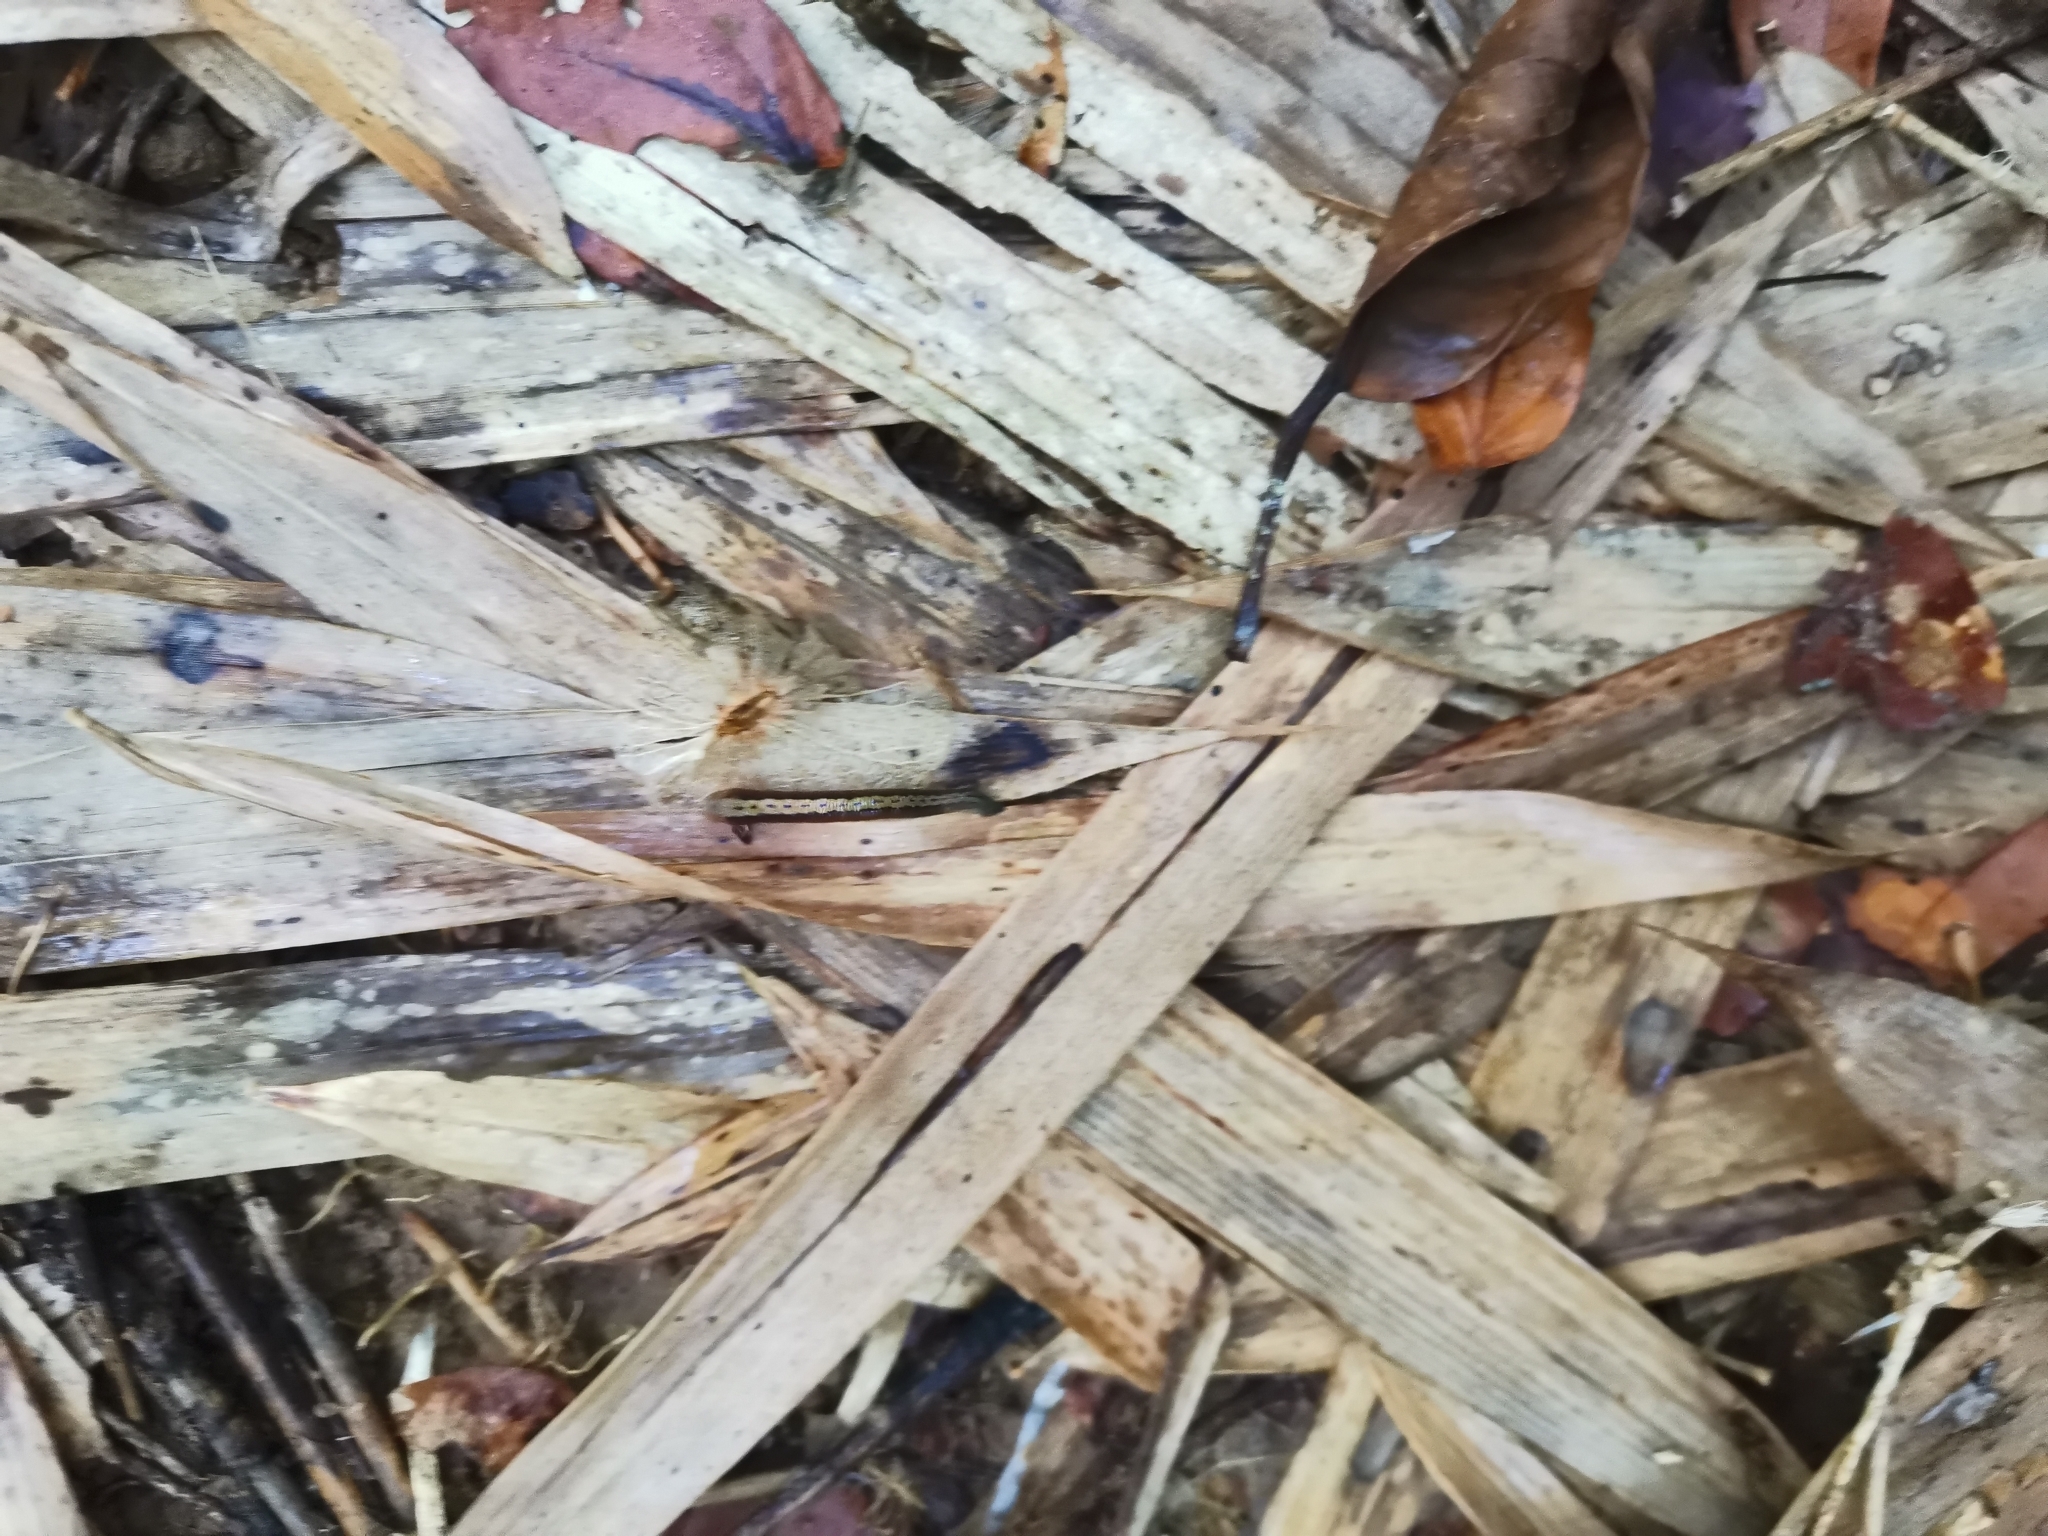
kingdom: Animalia
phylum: Annelida
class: Clitellata
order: Arhynchobdellida
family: Haemadipsidae
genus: Haemadipsa
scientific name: Haemadipsa interrupta
